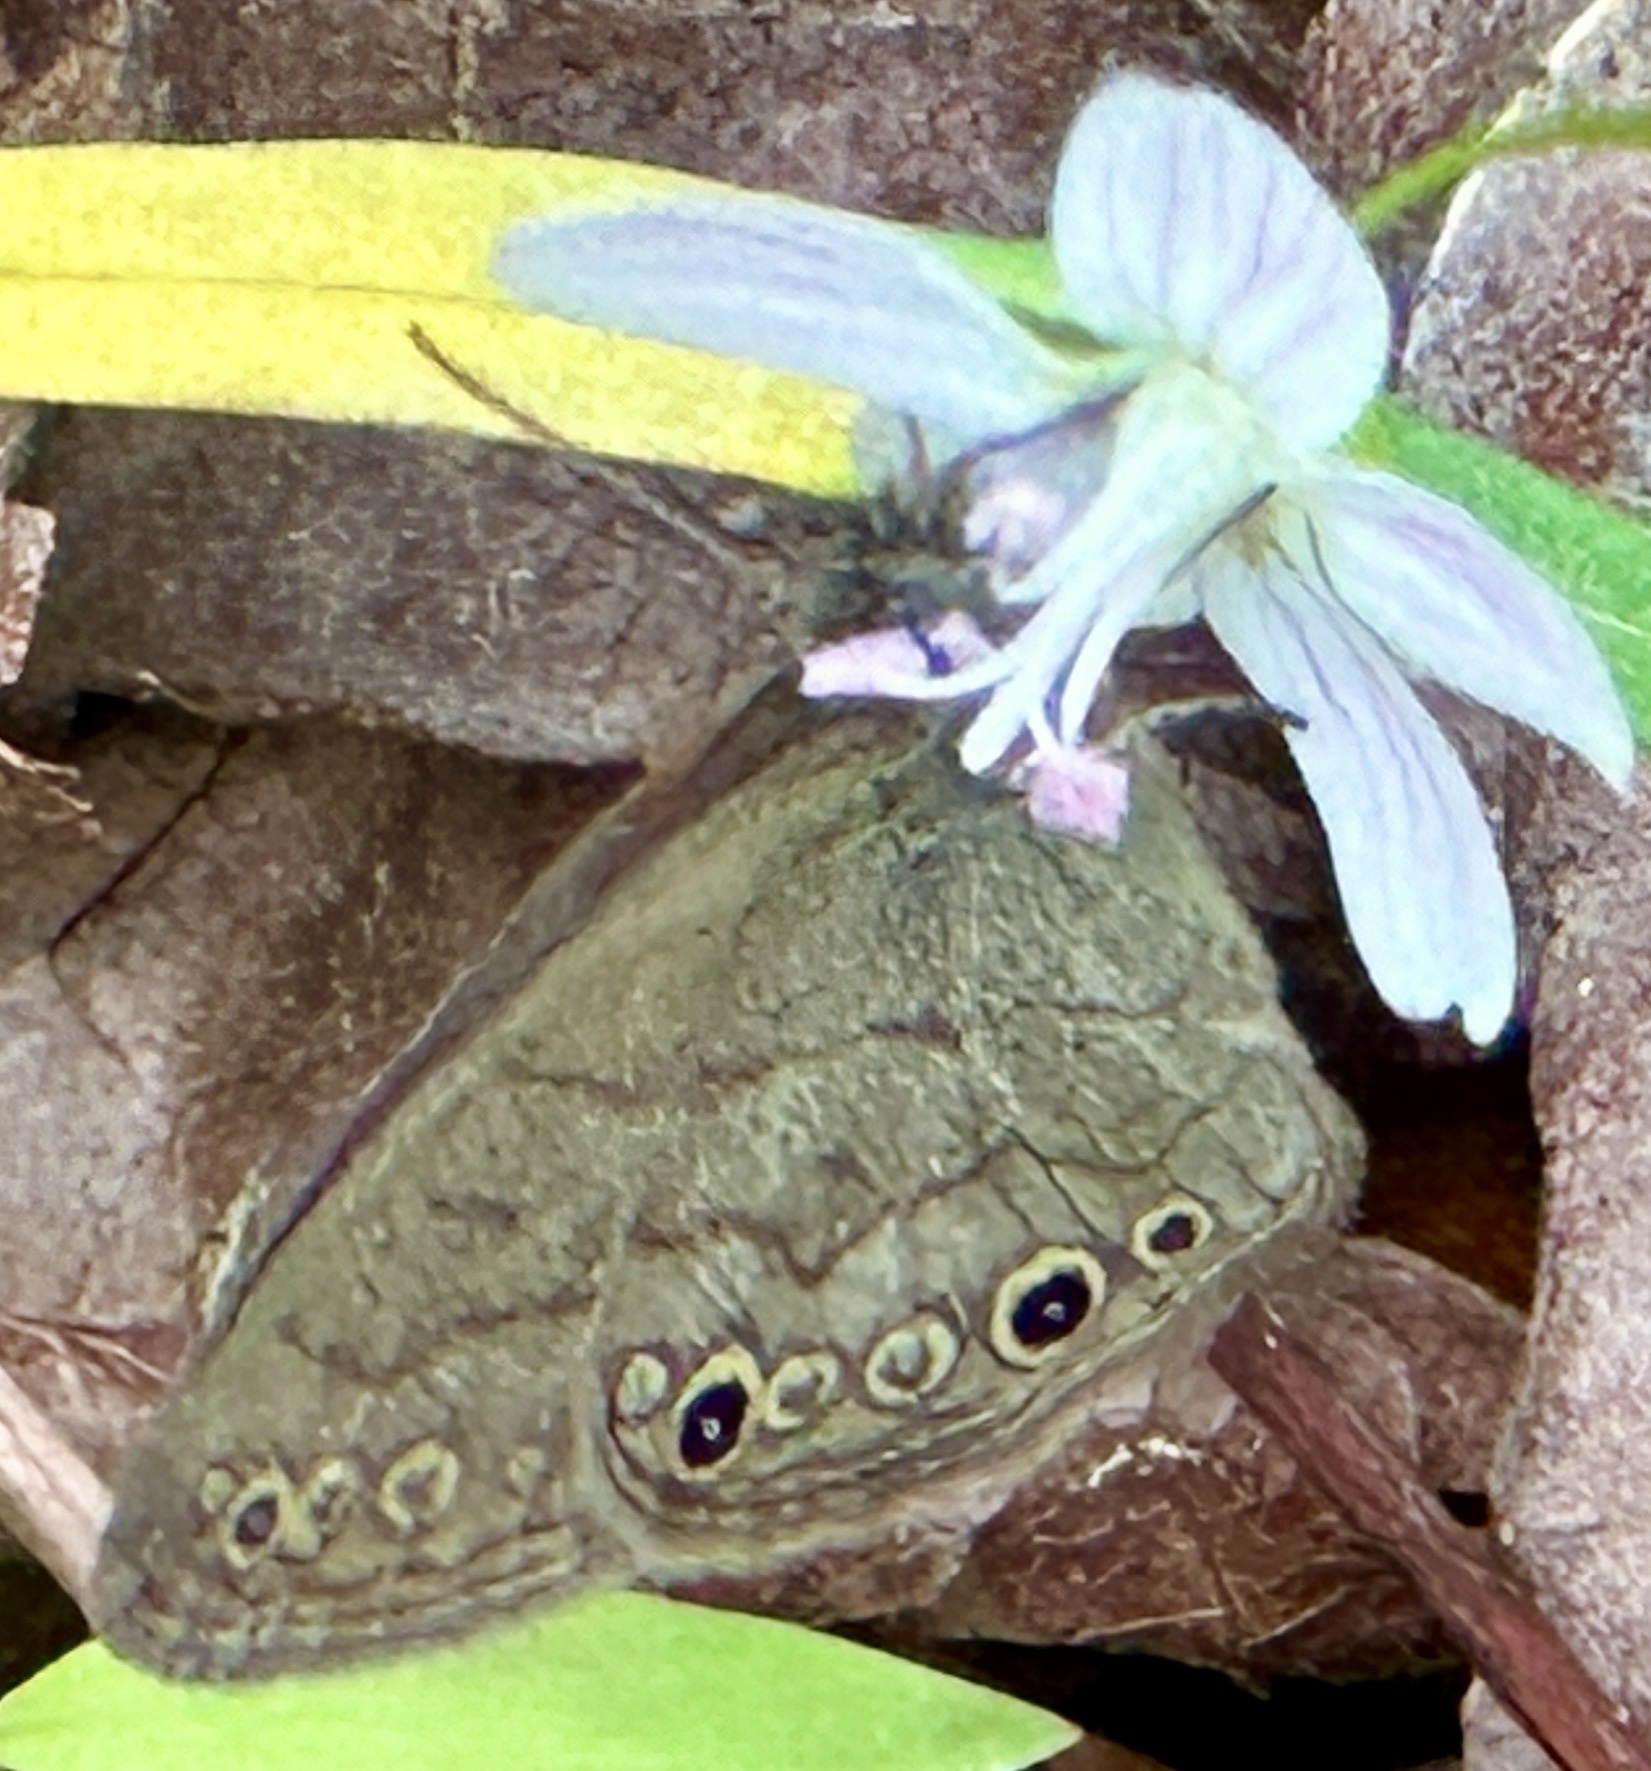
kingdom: Animalia
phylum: Arthropoda
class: Insecta
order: Lepidoptera
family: Nymphalidae
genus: Hermeuptychia
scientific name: Hermeuptychia hermes
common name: Hermes satyr
